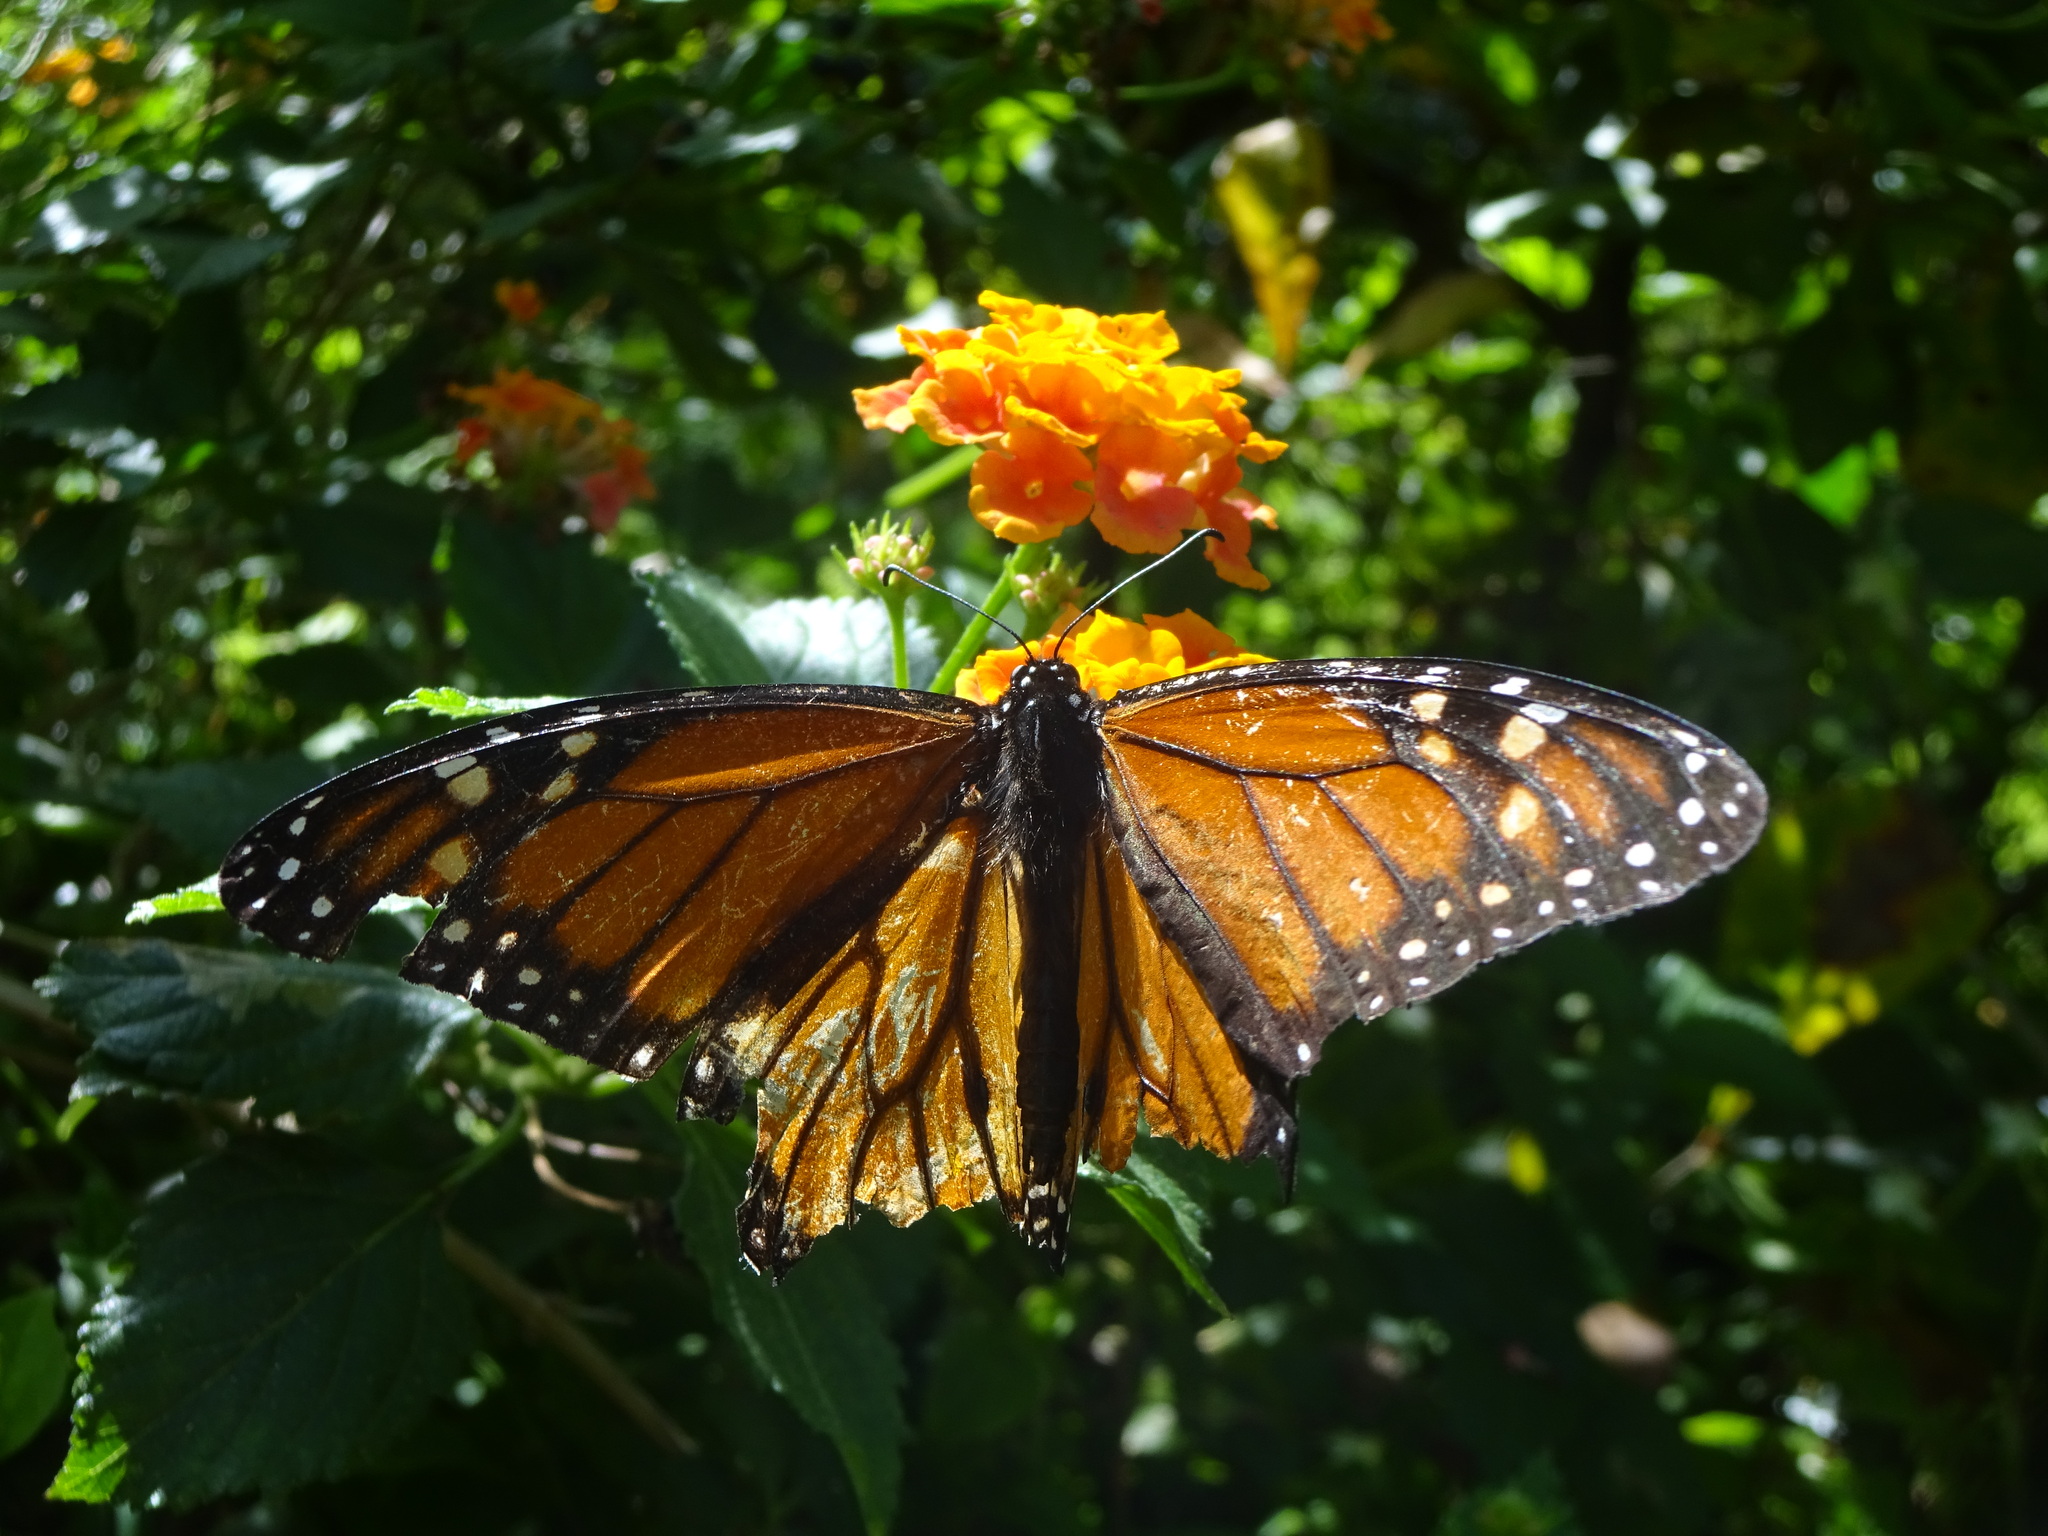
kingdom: Animalia
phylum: Arthropoda
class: Insecta
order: Lepidoptera
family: Nymphalidae
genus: Danaus
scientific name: Danaus plexippus
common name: Monarch
